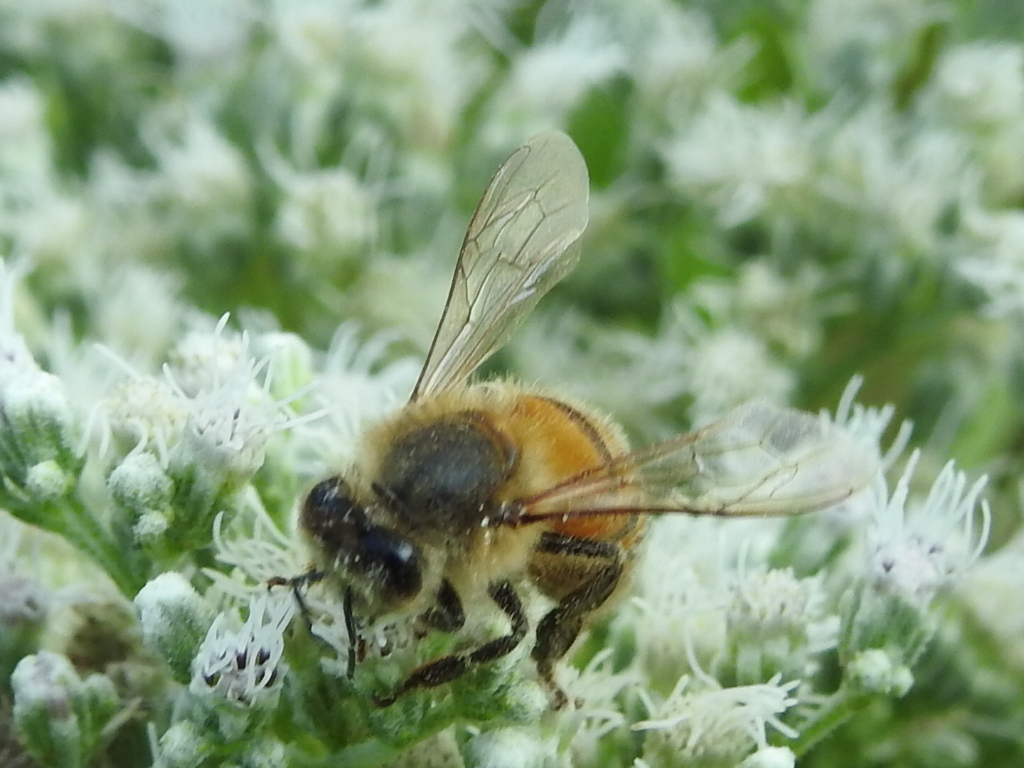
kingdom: Animalia
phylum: Arthropoda
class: Insecta
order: Hymenoptera
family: Apidae
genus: Apis
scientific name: Apis mellifera
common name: Honey bee
